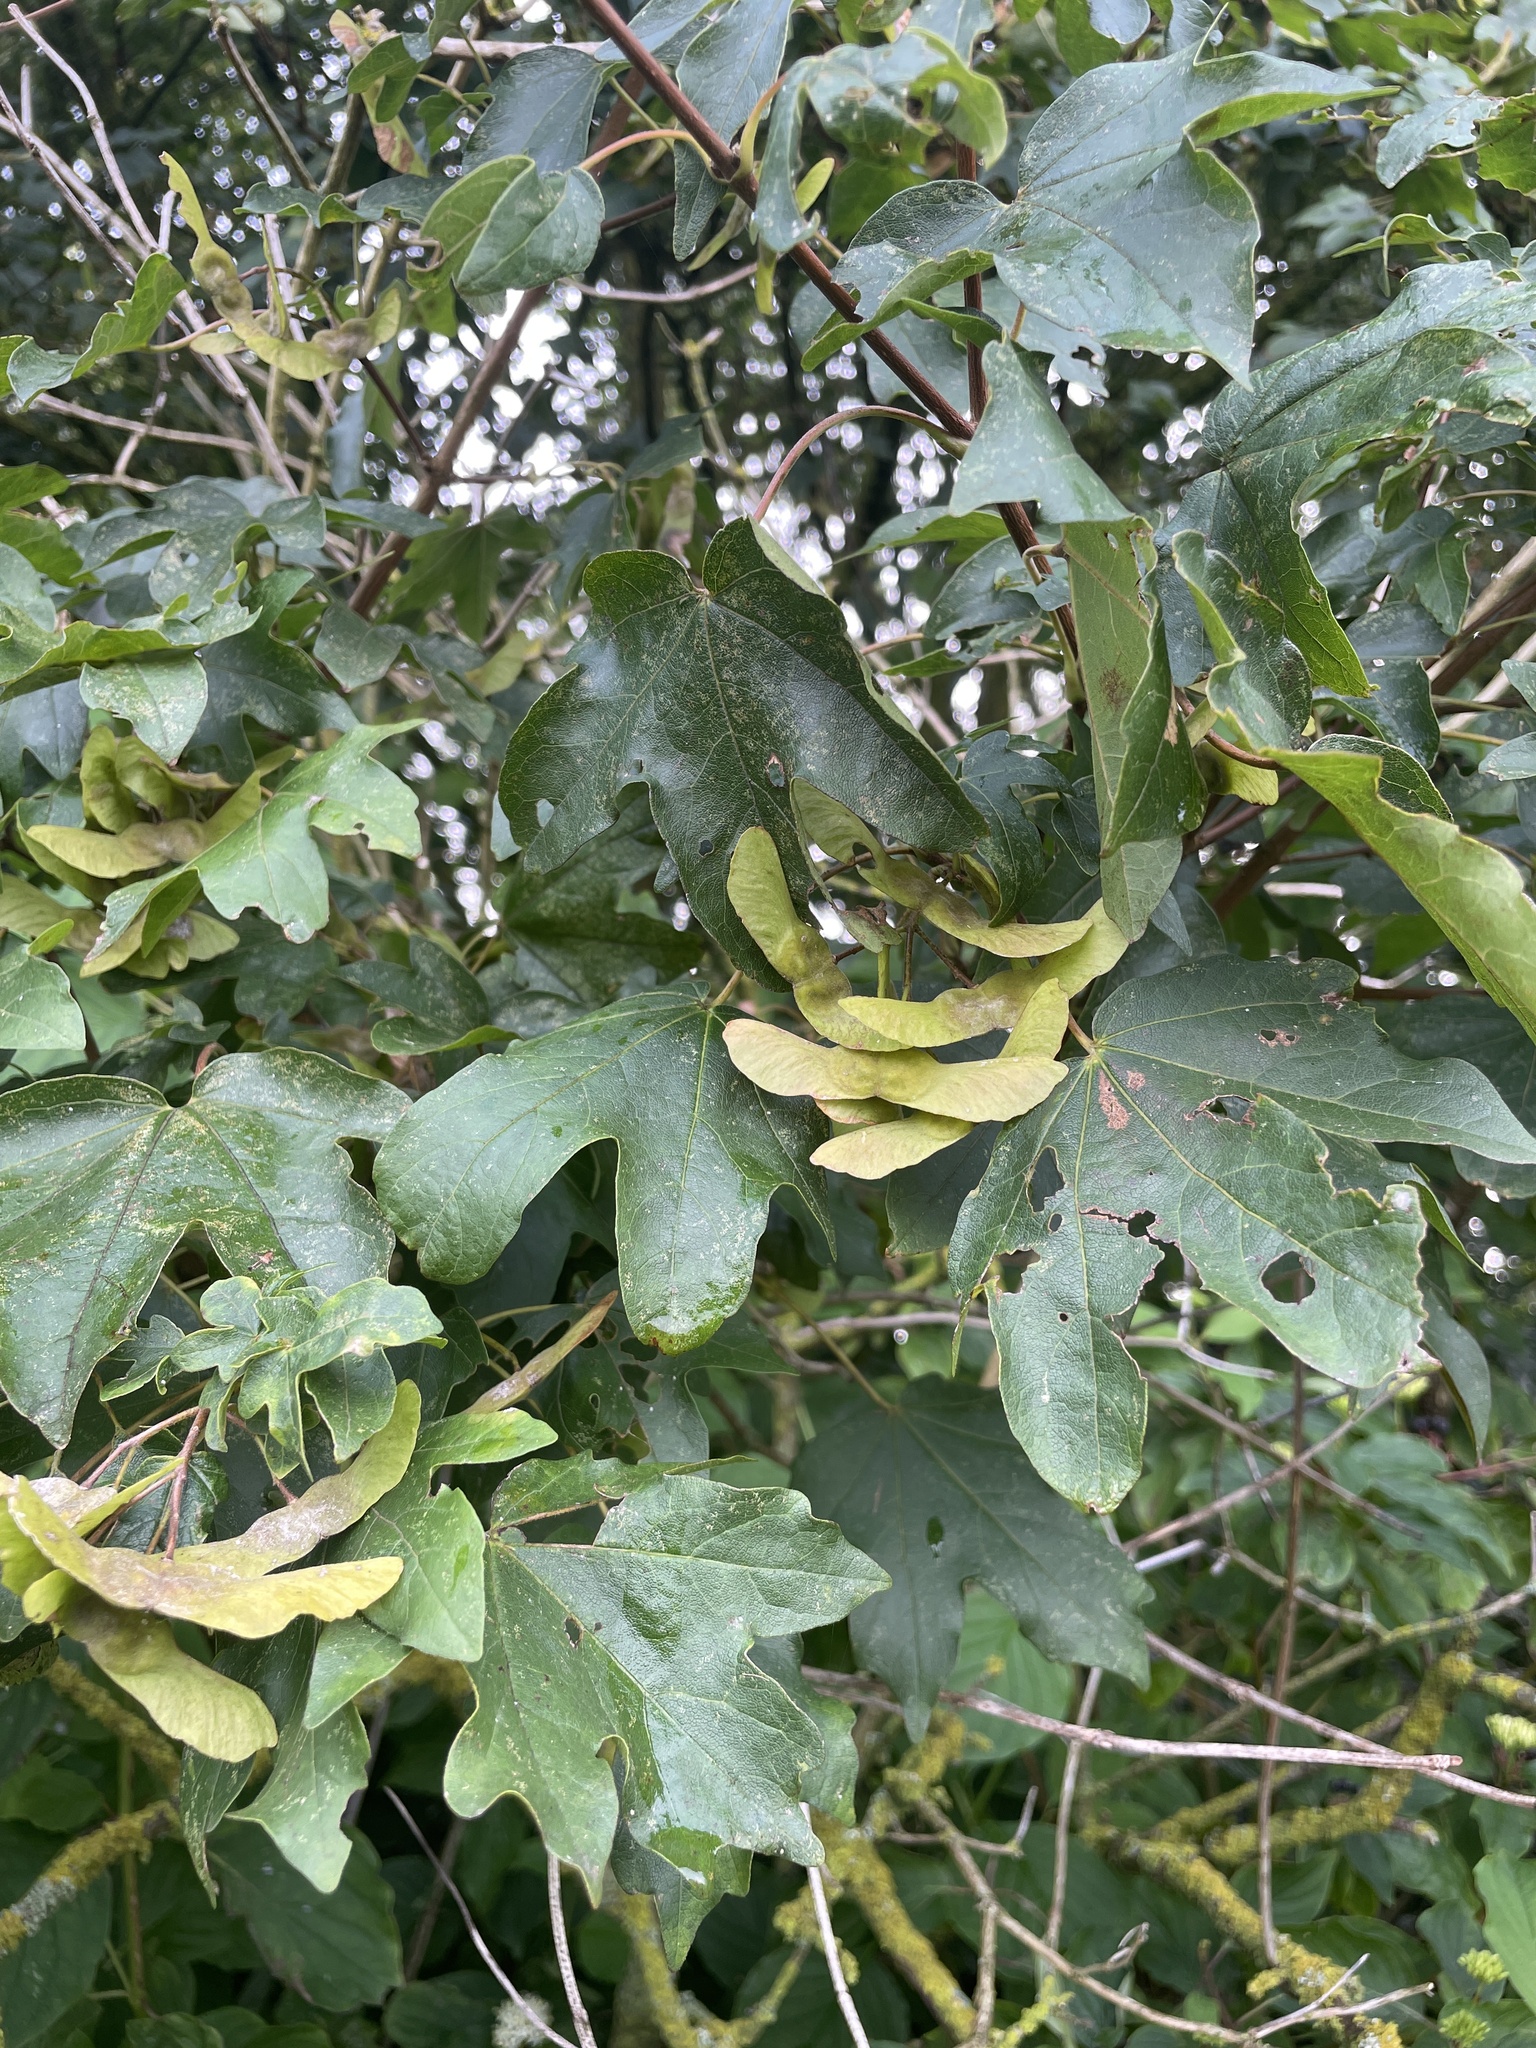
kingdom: Plantae
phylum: Tracheophyta
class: Magnoliopsida
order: Sapindales
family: Sapindaceae
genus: Acer
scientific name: Acer campestre
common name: Field maple
